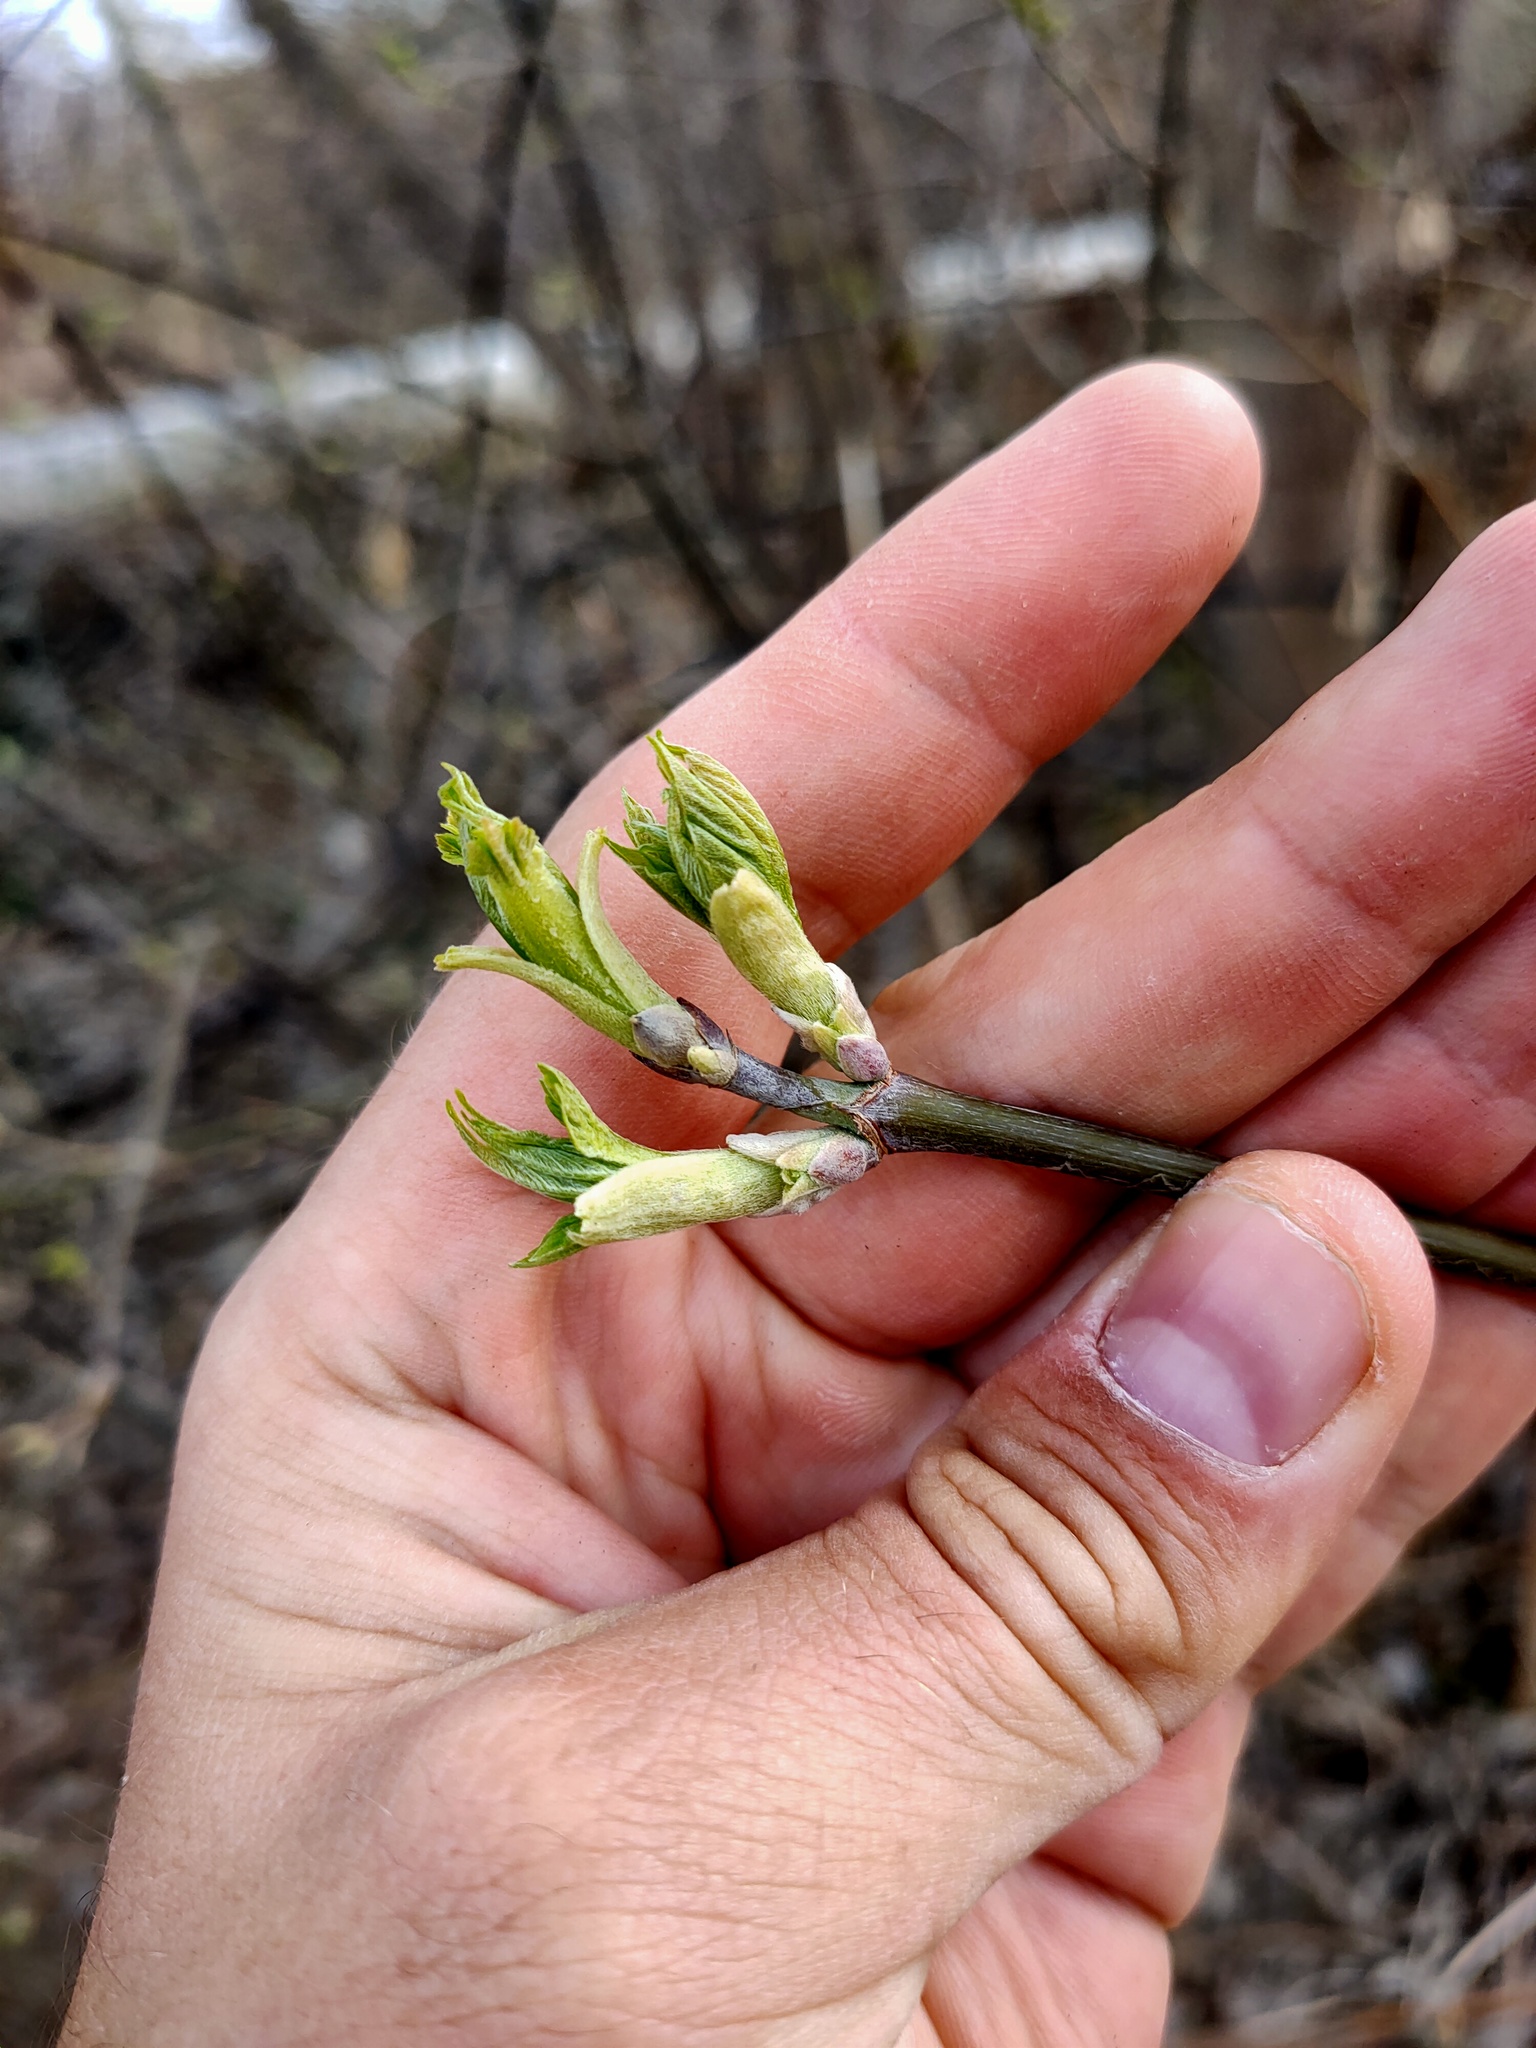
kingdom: Plantae
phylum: Tracheophyta
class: Magnoliopsida
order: Sapindales
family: Sapindaceae
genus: Acer
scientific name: Acer negundo
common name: Ashleaf maple
